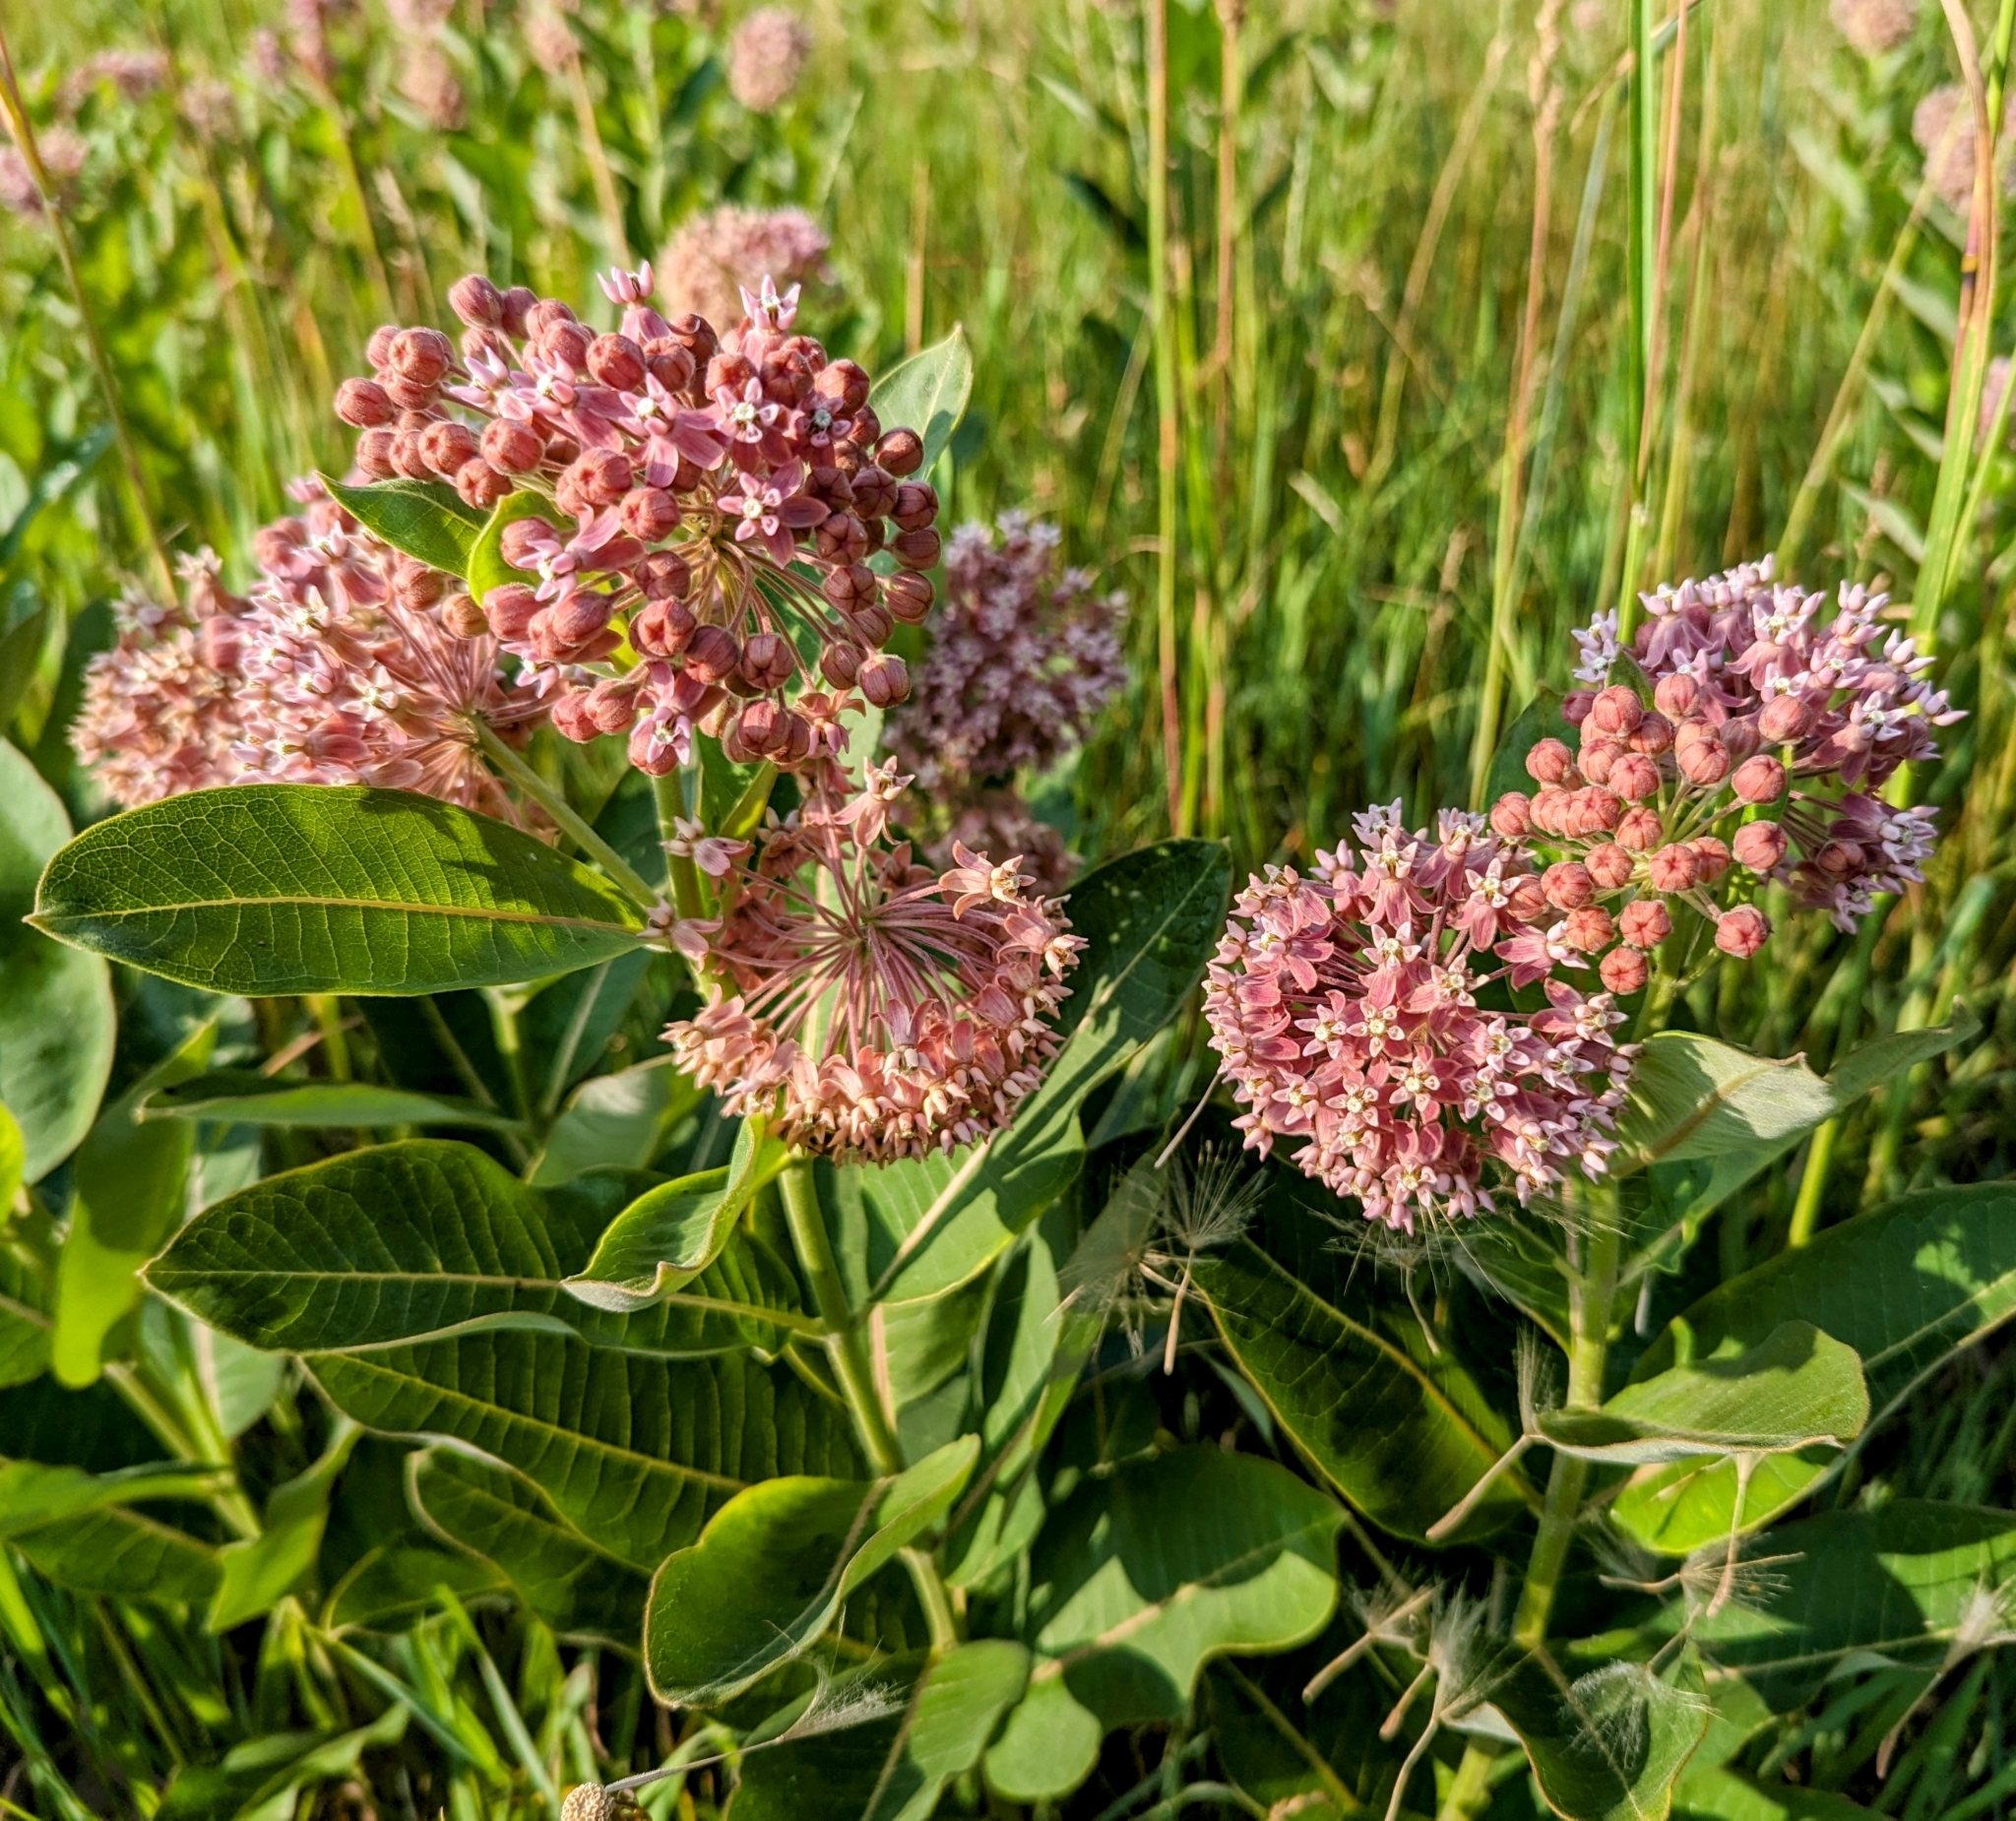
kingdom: Plantae
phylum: Tracheophyta
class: Magnoliopsida
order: Gentianales
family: Apocynaceae
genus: Asclepias
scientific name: Asclepias syriaca
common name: Common milkweed
